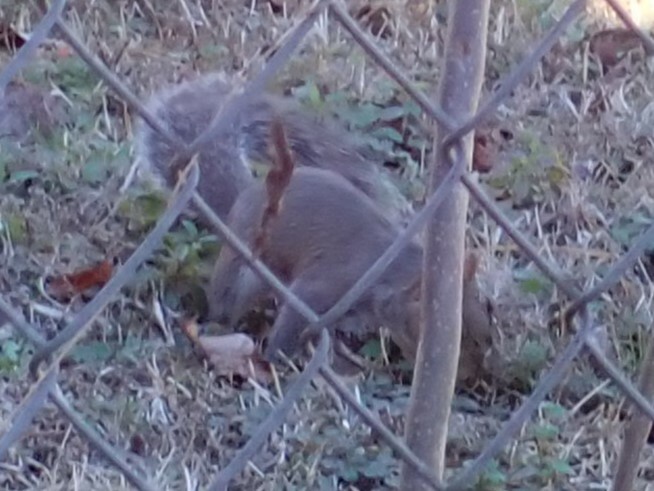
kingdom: Animalia
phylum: Chordata
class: Mammalia
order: Rodentia
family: Sciuridae
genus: Sciurus
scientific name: Sciurus carolinensis
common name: Eastern gray squirrel
